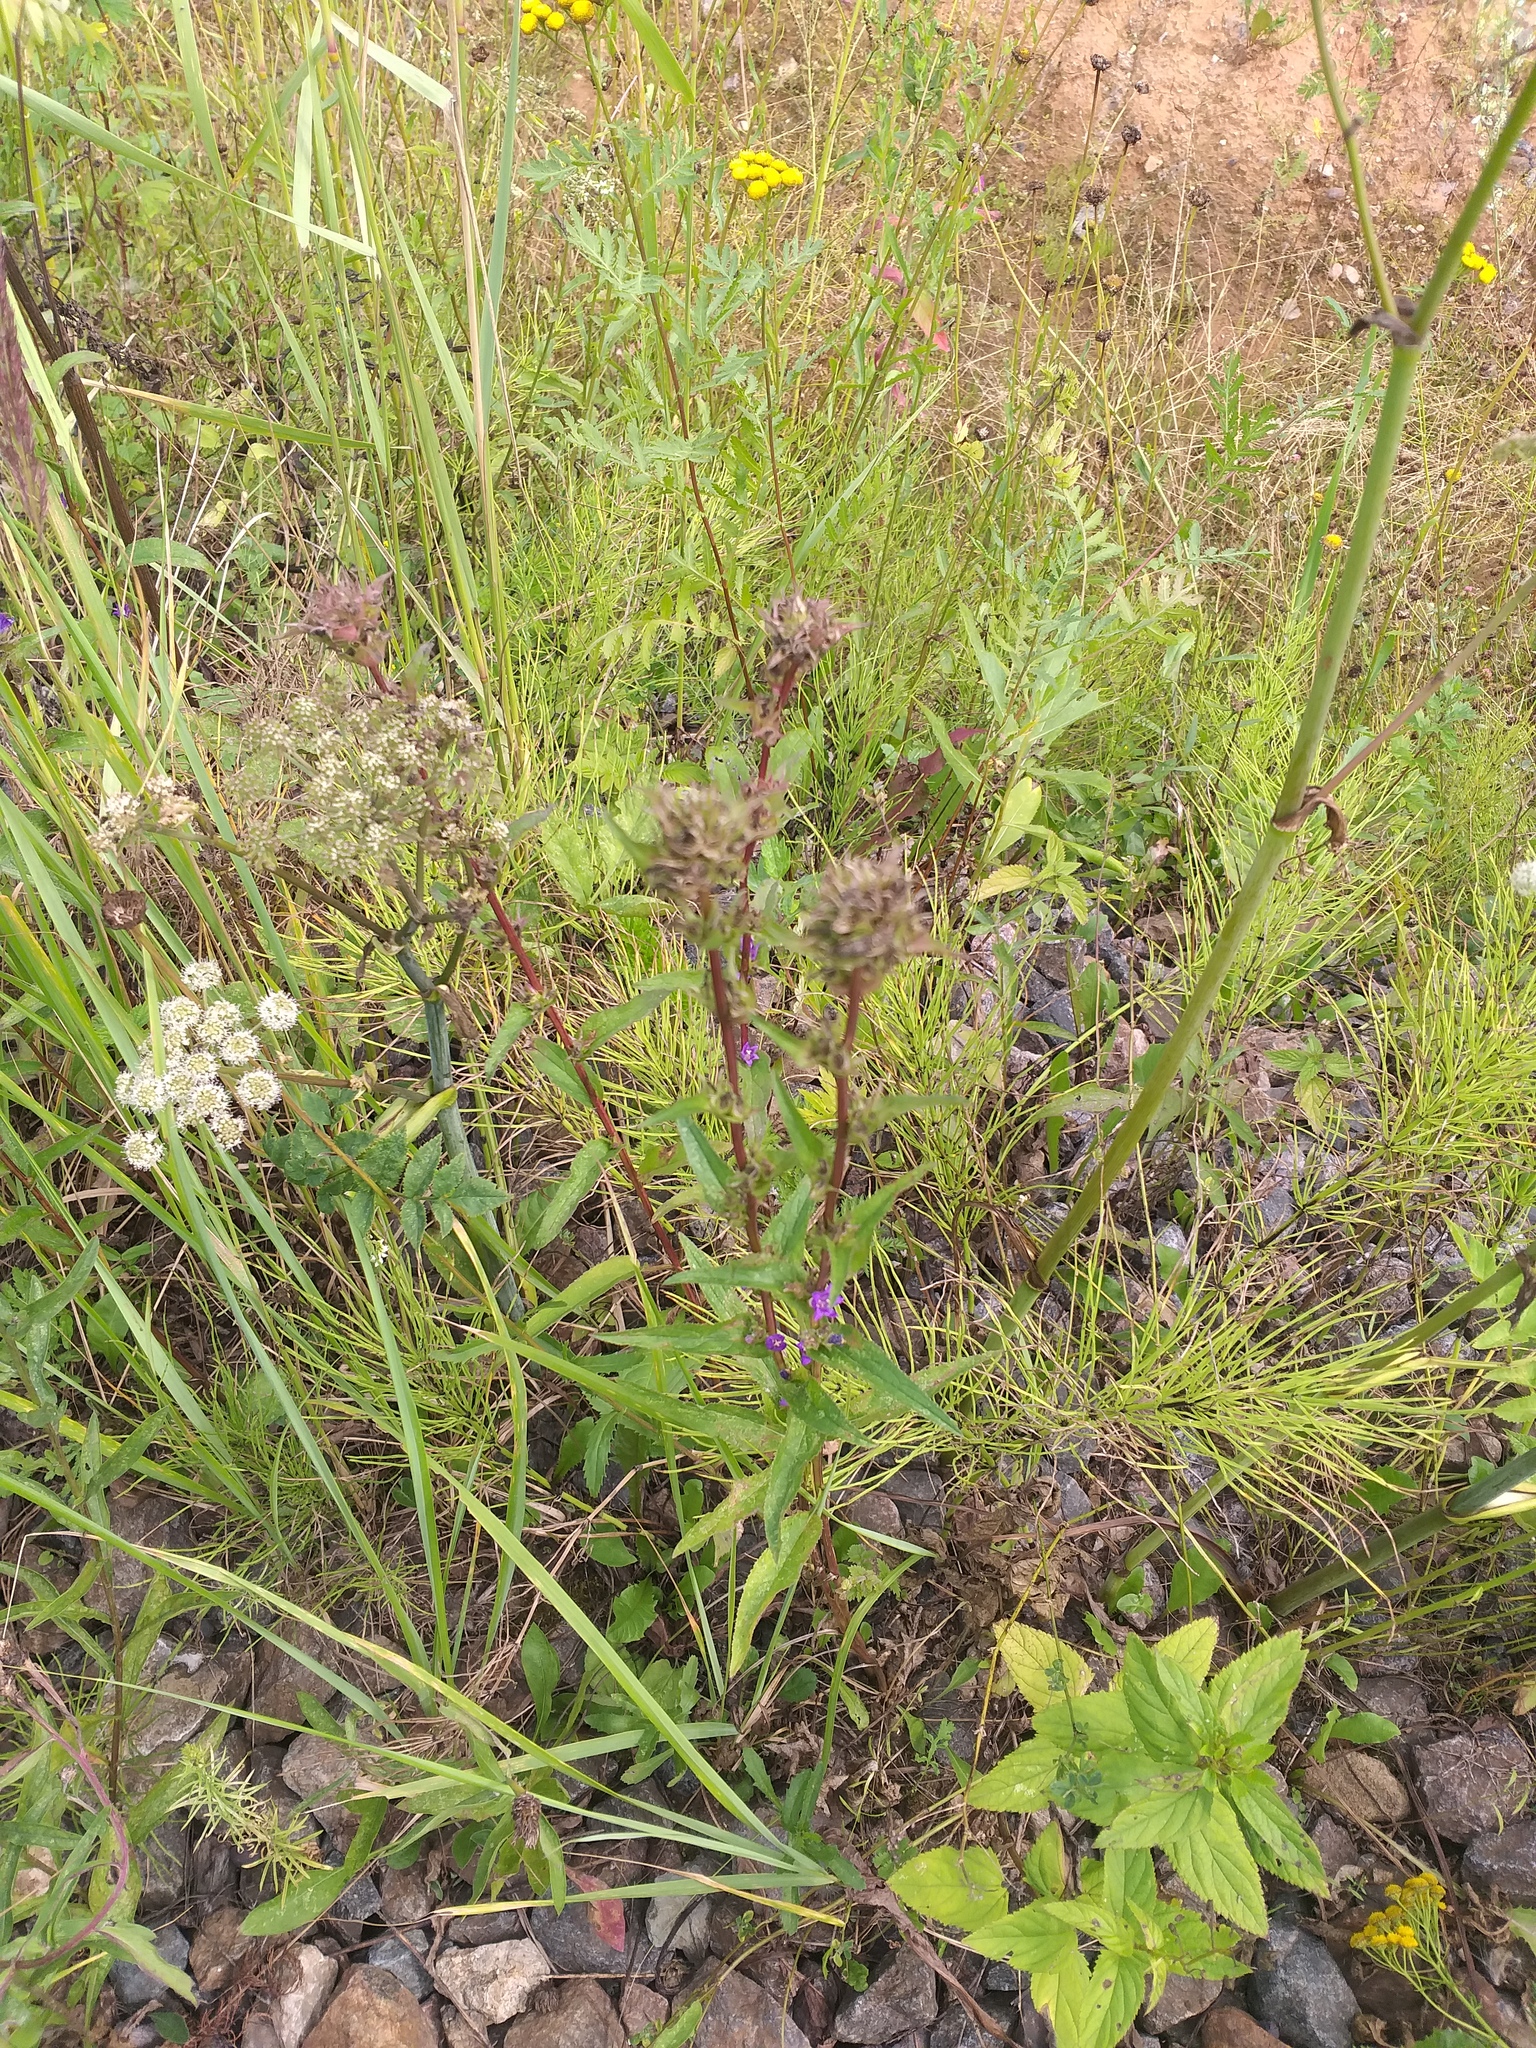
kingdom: Plantae
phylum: Tracheophyta
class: Magnoliopsida
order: Asterales
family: Campanulaceae
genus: Campanula
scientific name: Campanula glomerata
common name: Clustered bellflower
